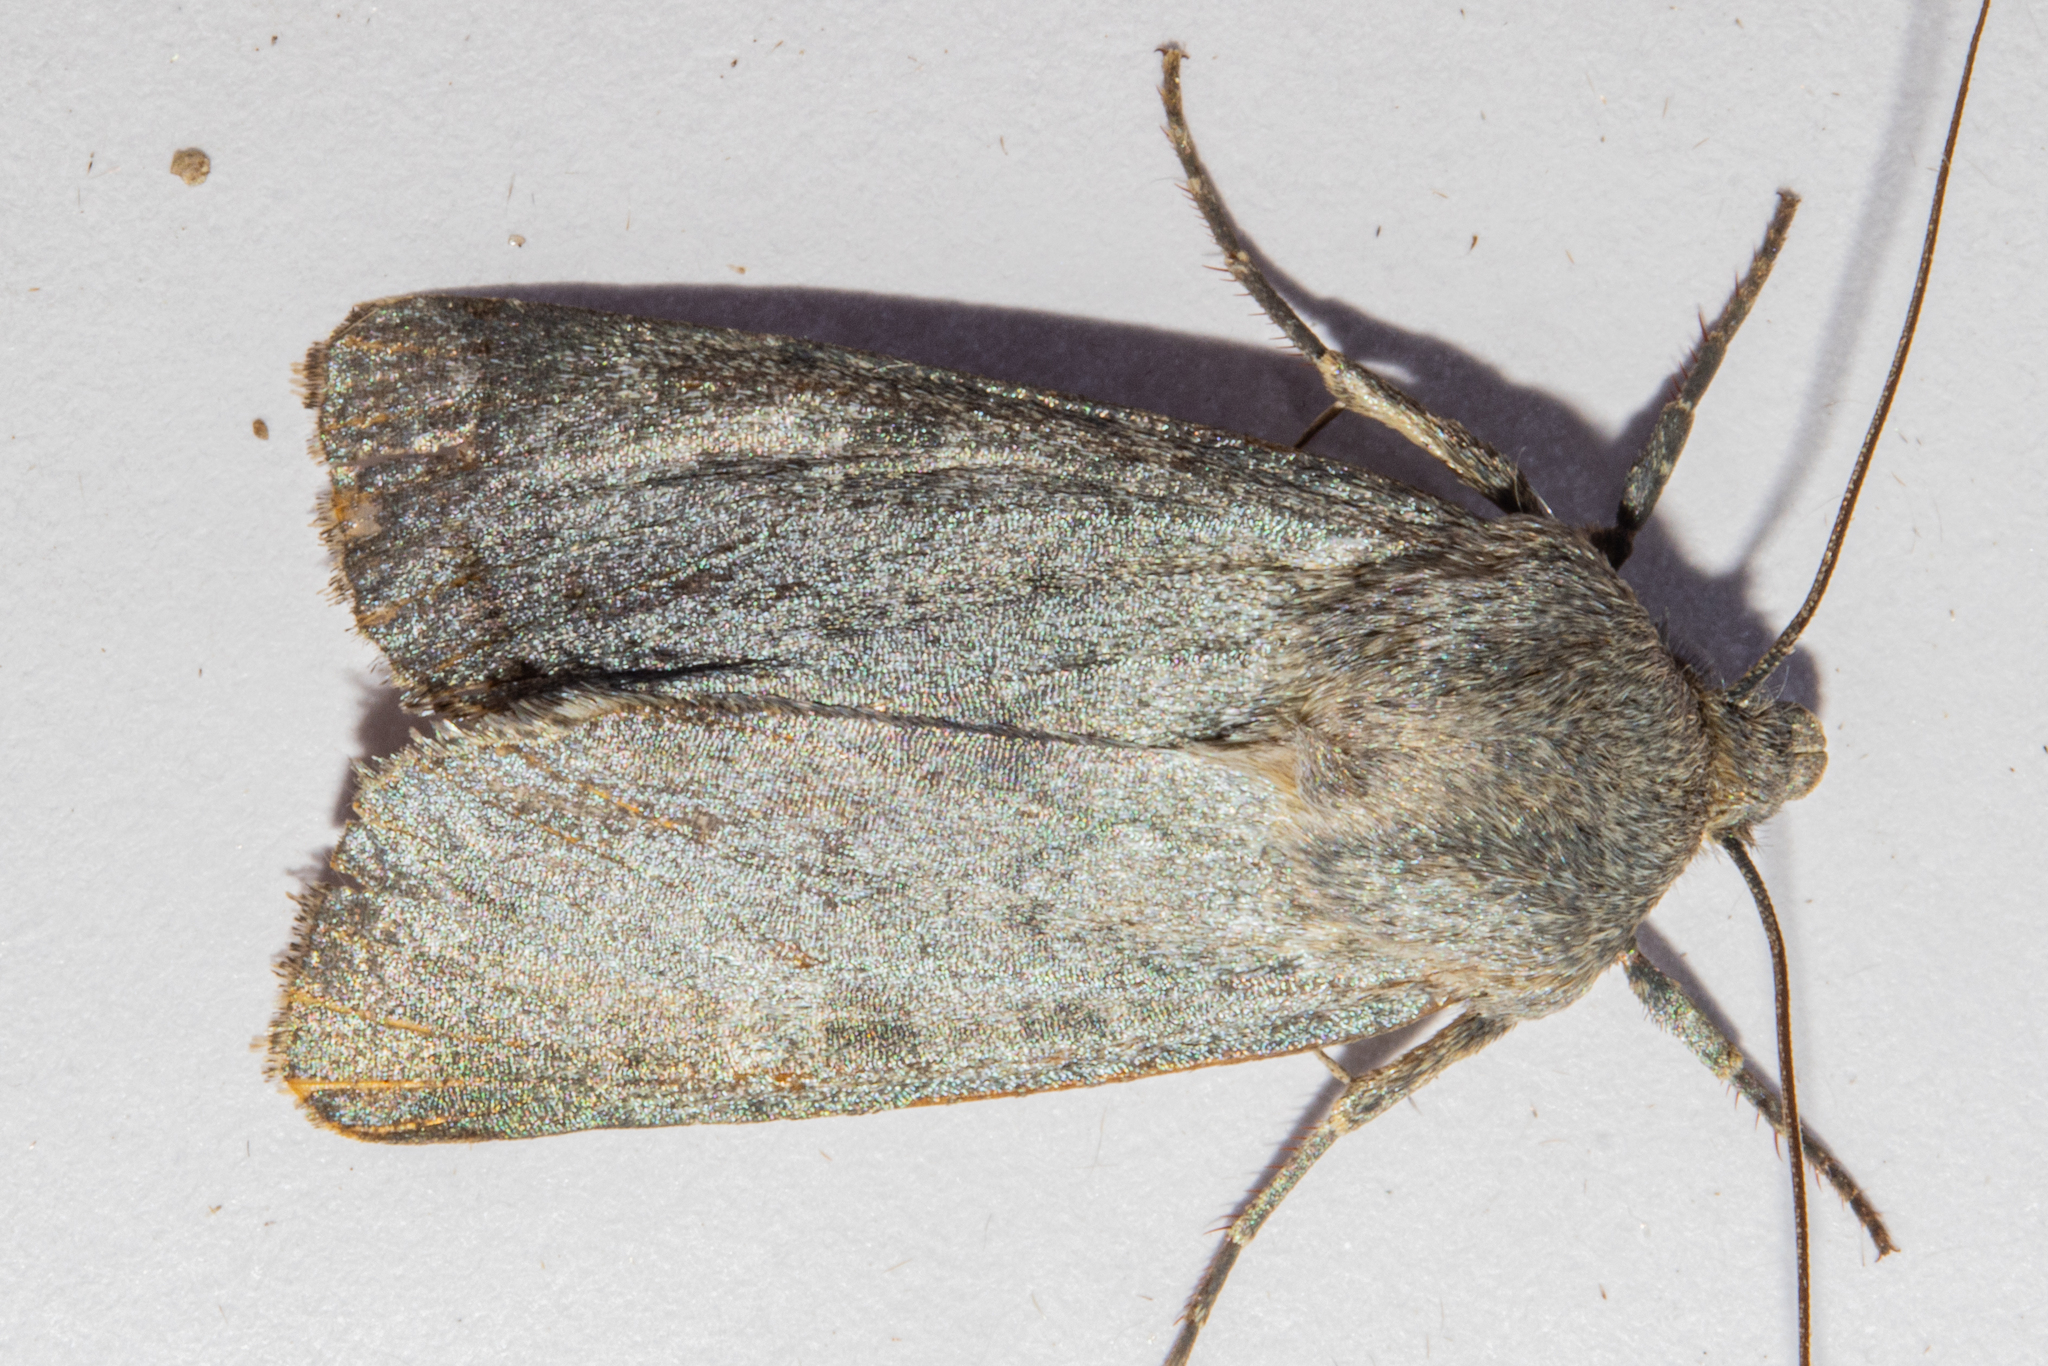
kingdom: Animalia
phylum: Arthropoda
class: Insecta
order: Lepidoptera
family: Noctuidae
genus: Physetica
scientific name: Physetica caerulea
